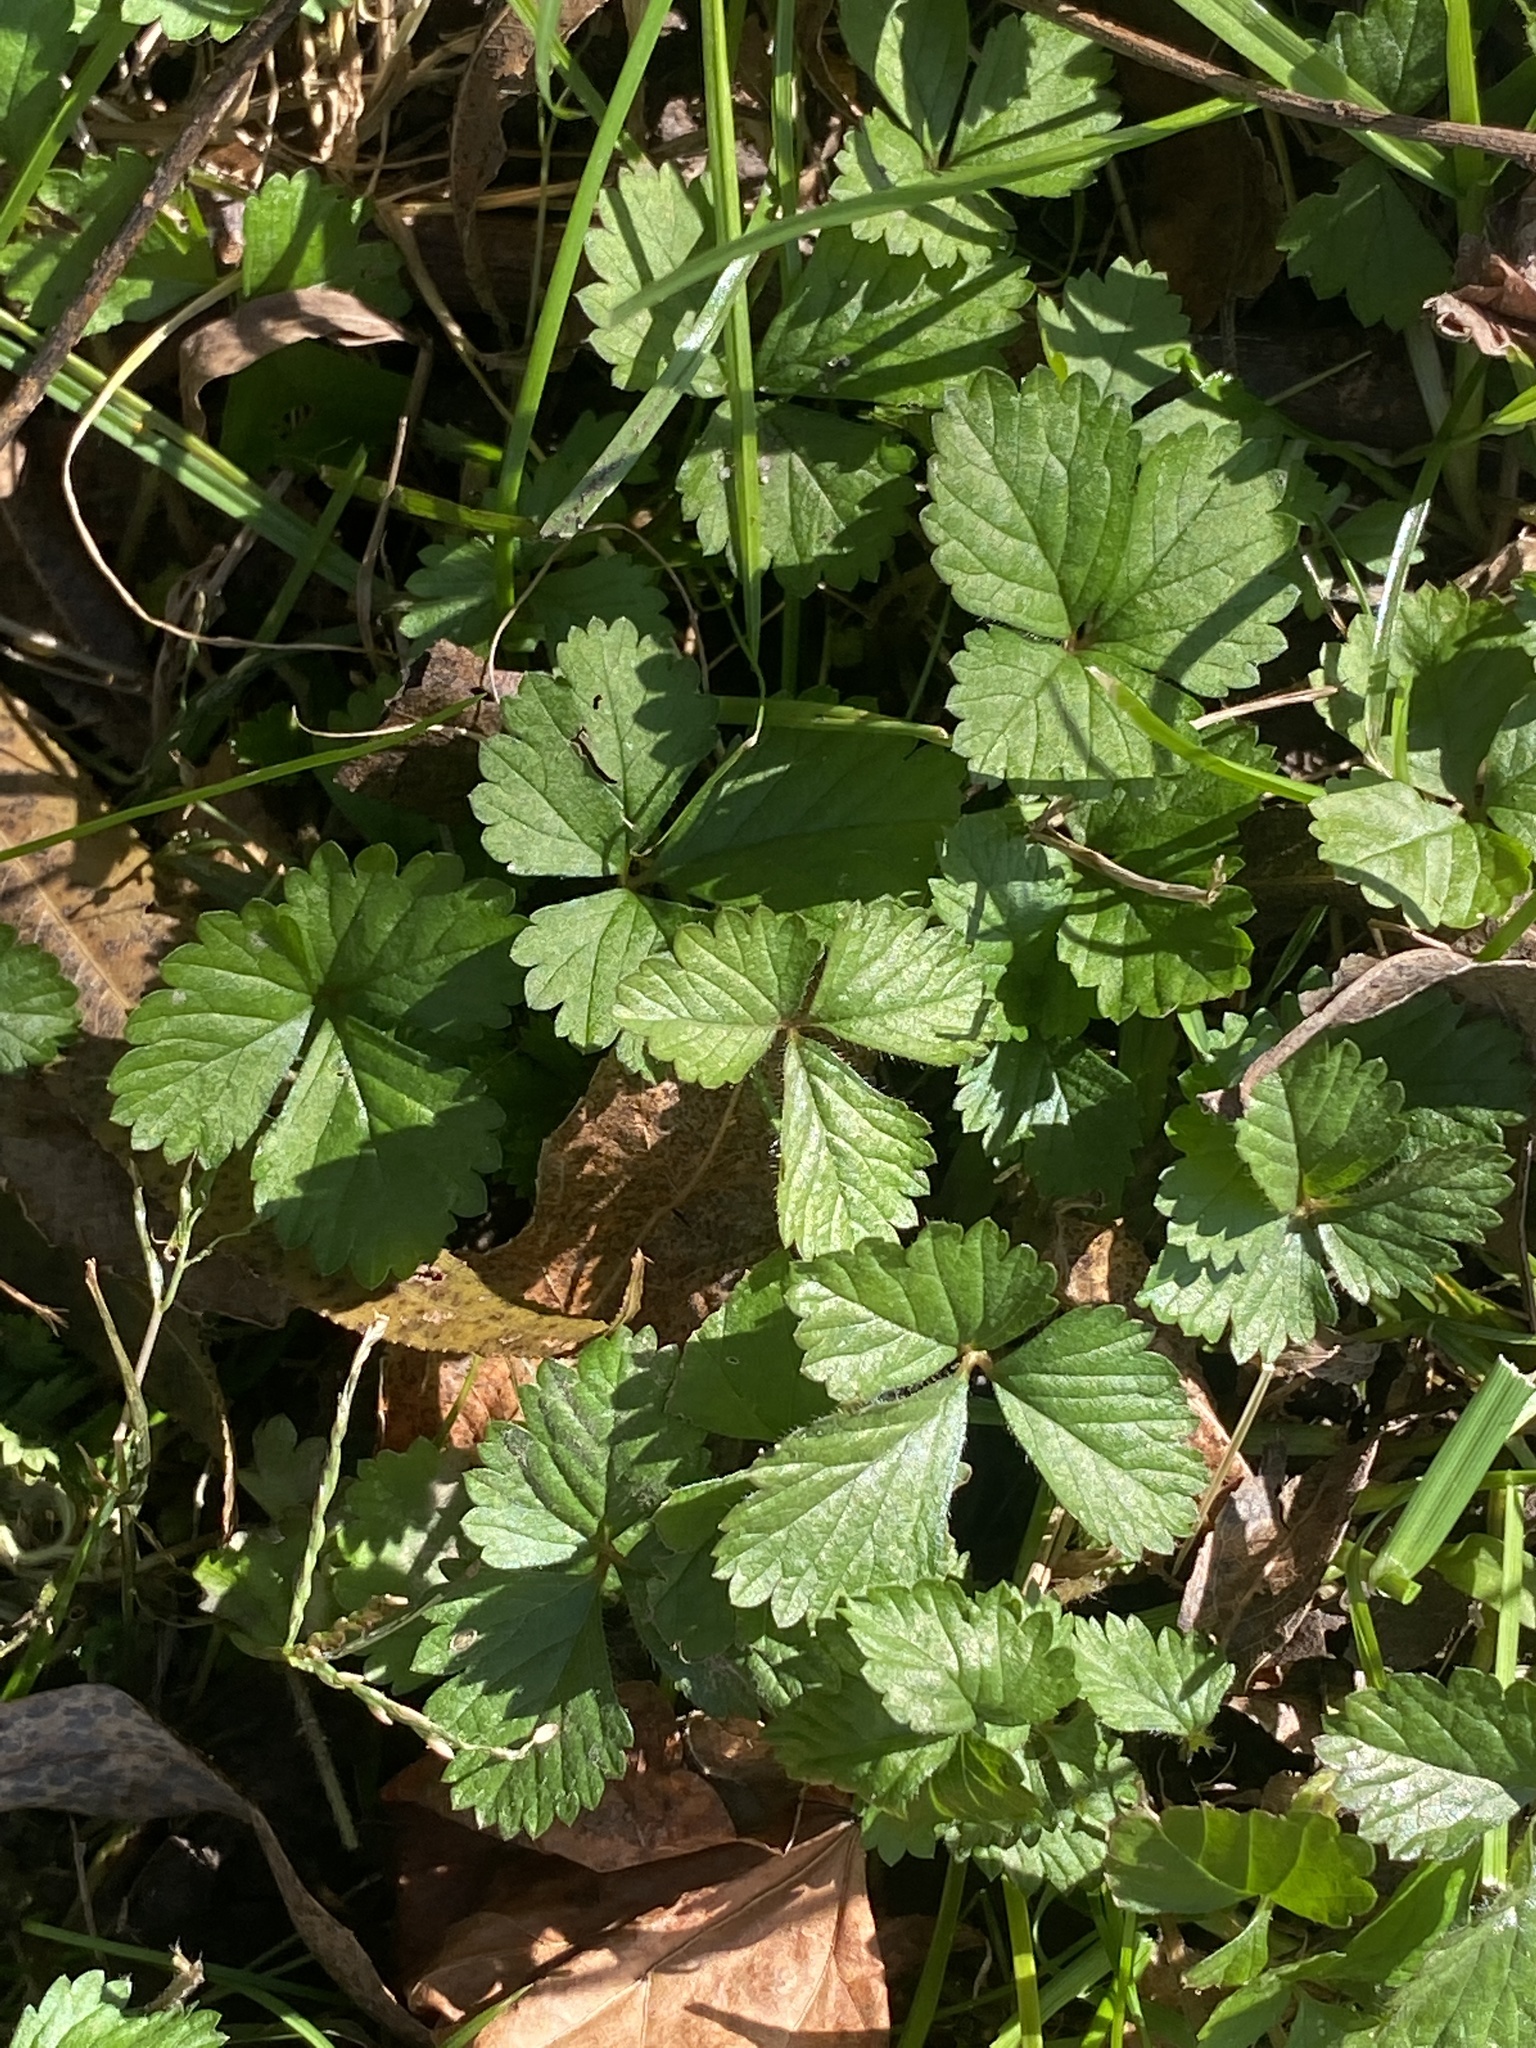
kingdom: Plantae
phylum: Tracheophyta
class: Magnoliopsida
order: Rosales
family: Rosaceae
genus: Potentilla
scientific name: Potentilla indica
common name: Yellow-flowered strawberry
